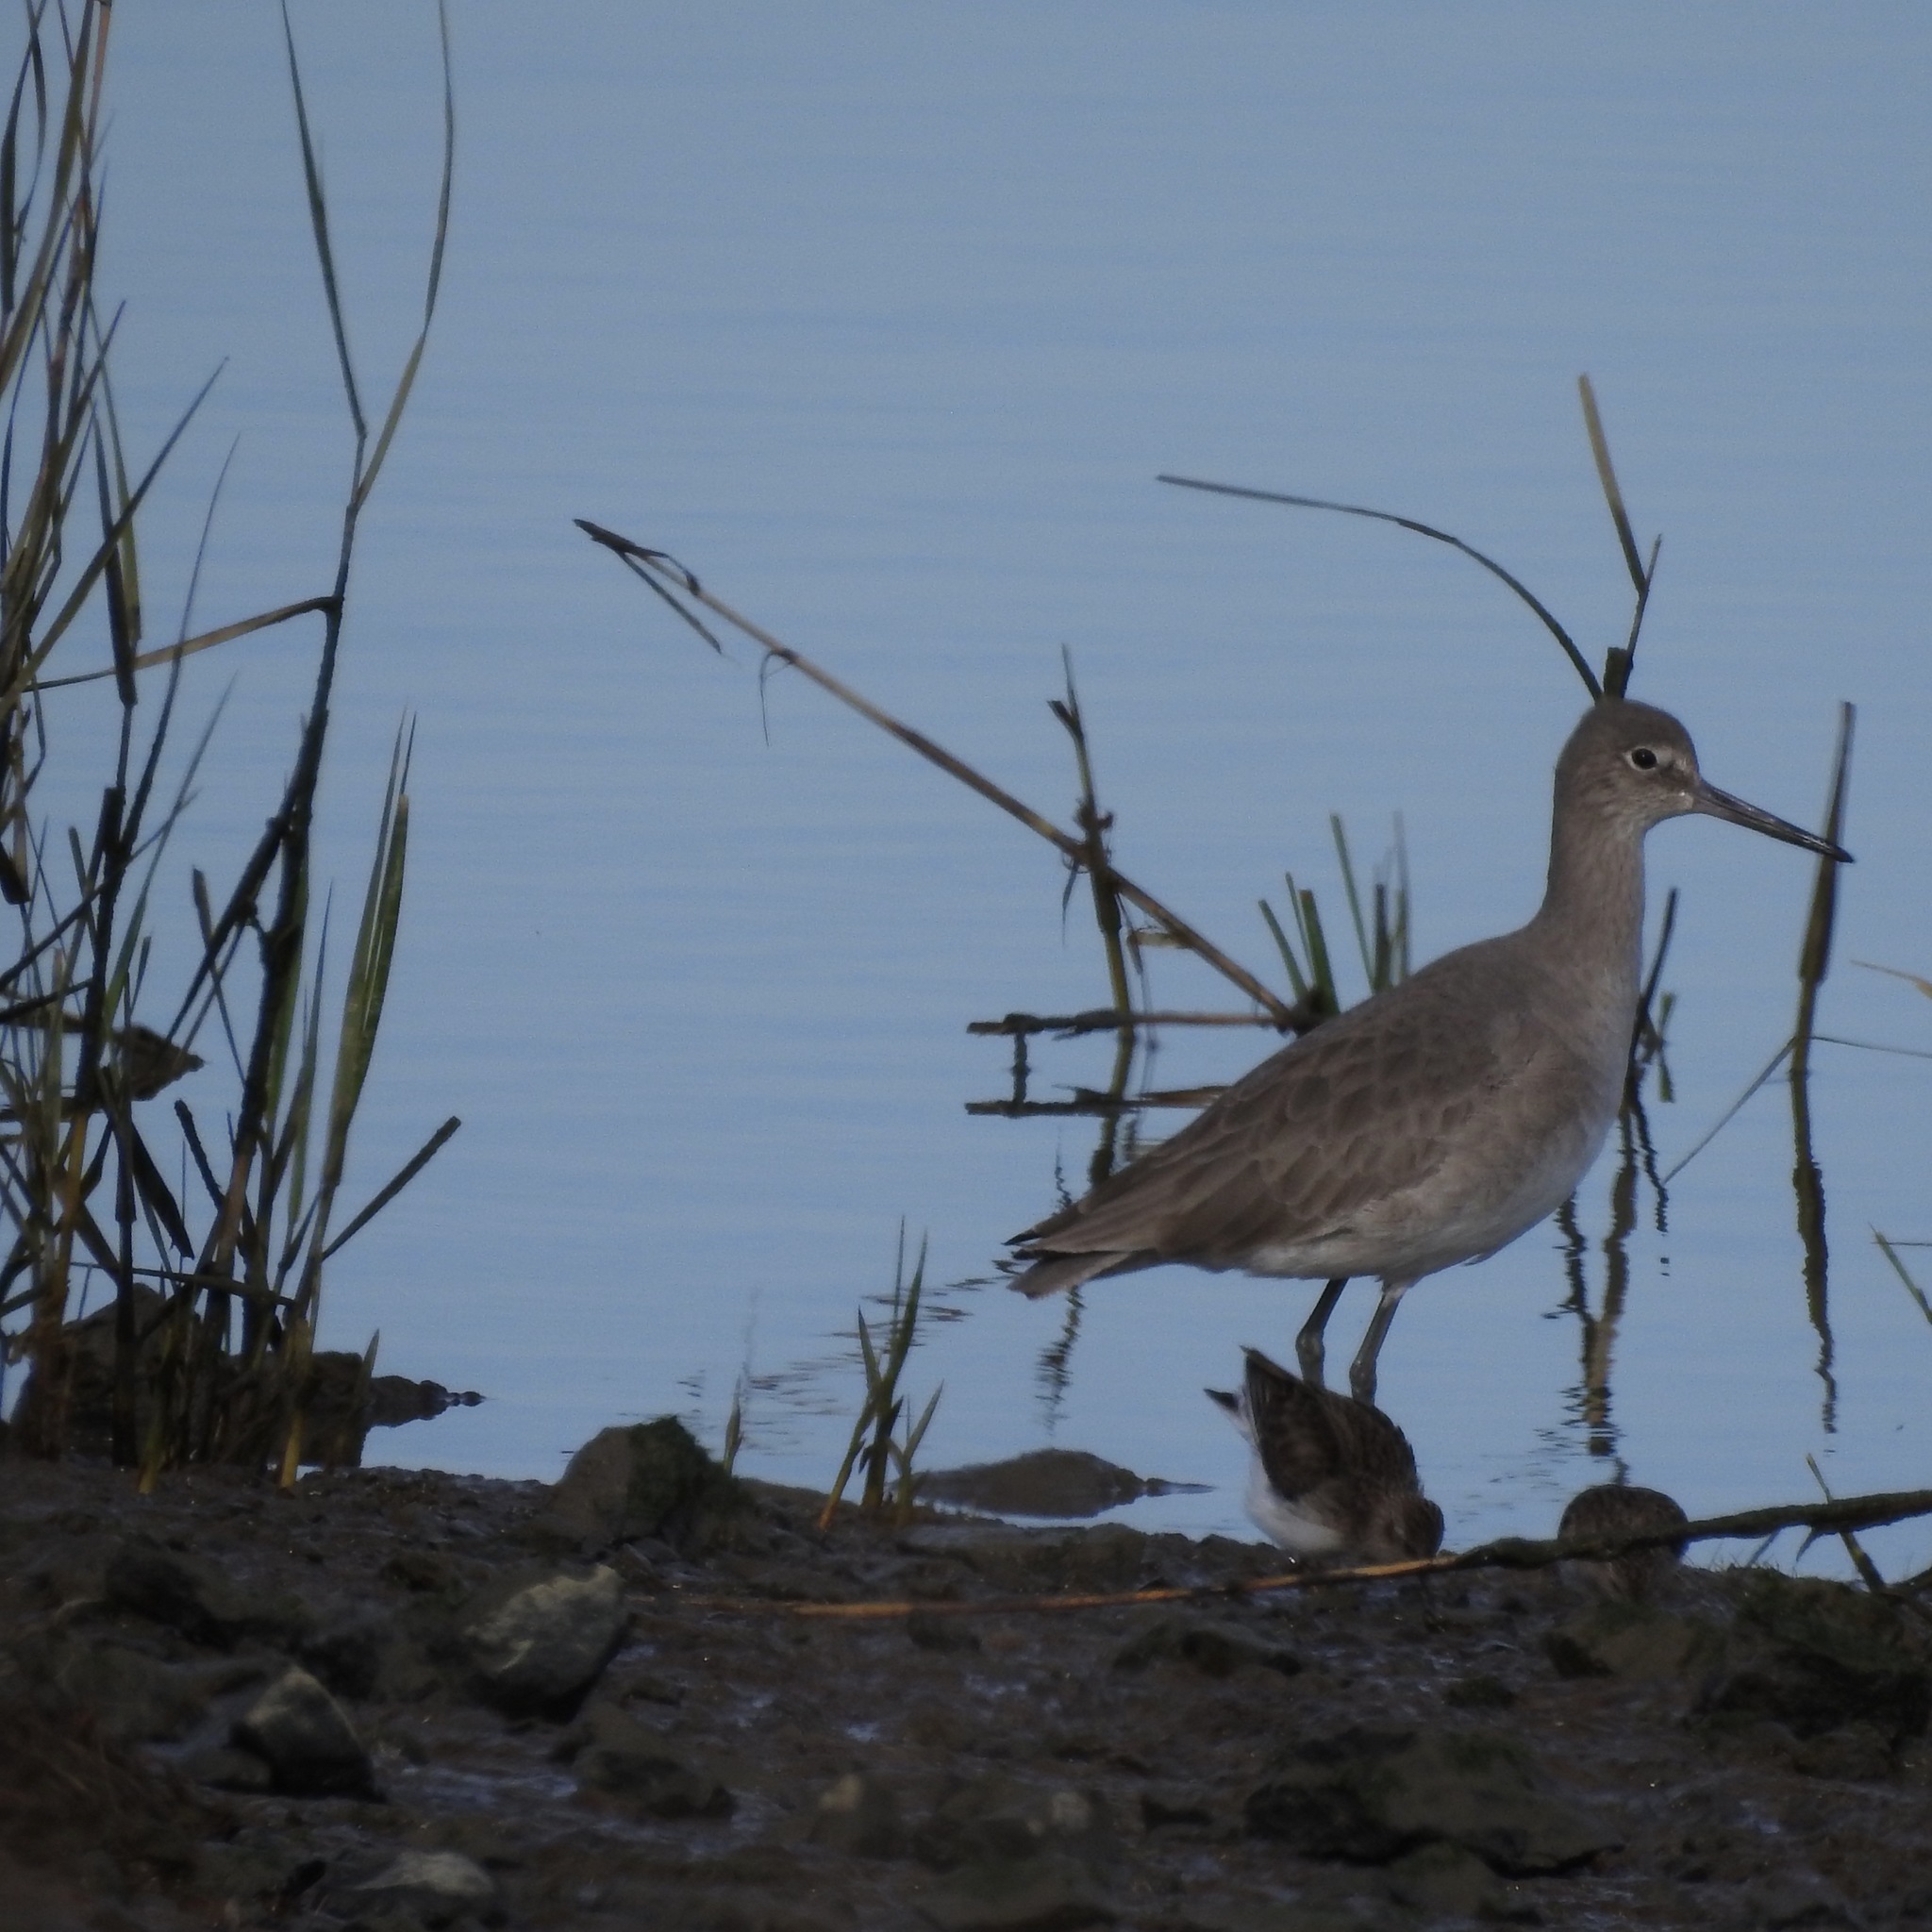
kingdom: Animalia
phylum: Chordata
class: Aves
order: Charadriiformes
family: Scolopacidae
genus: Tringa
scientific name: Tringa semipalmata
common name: Willet
